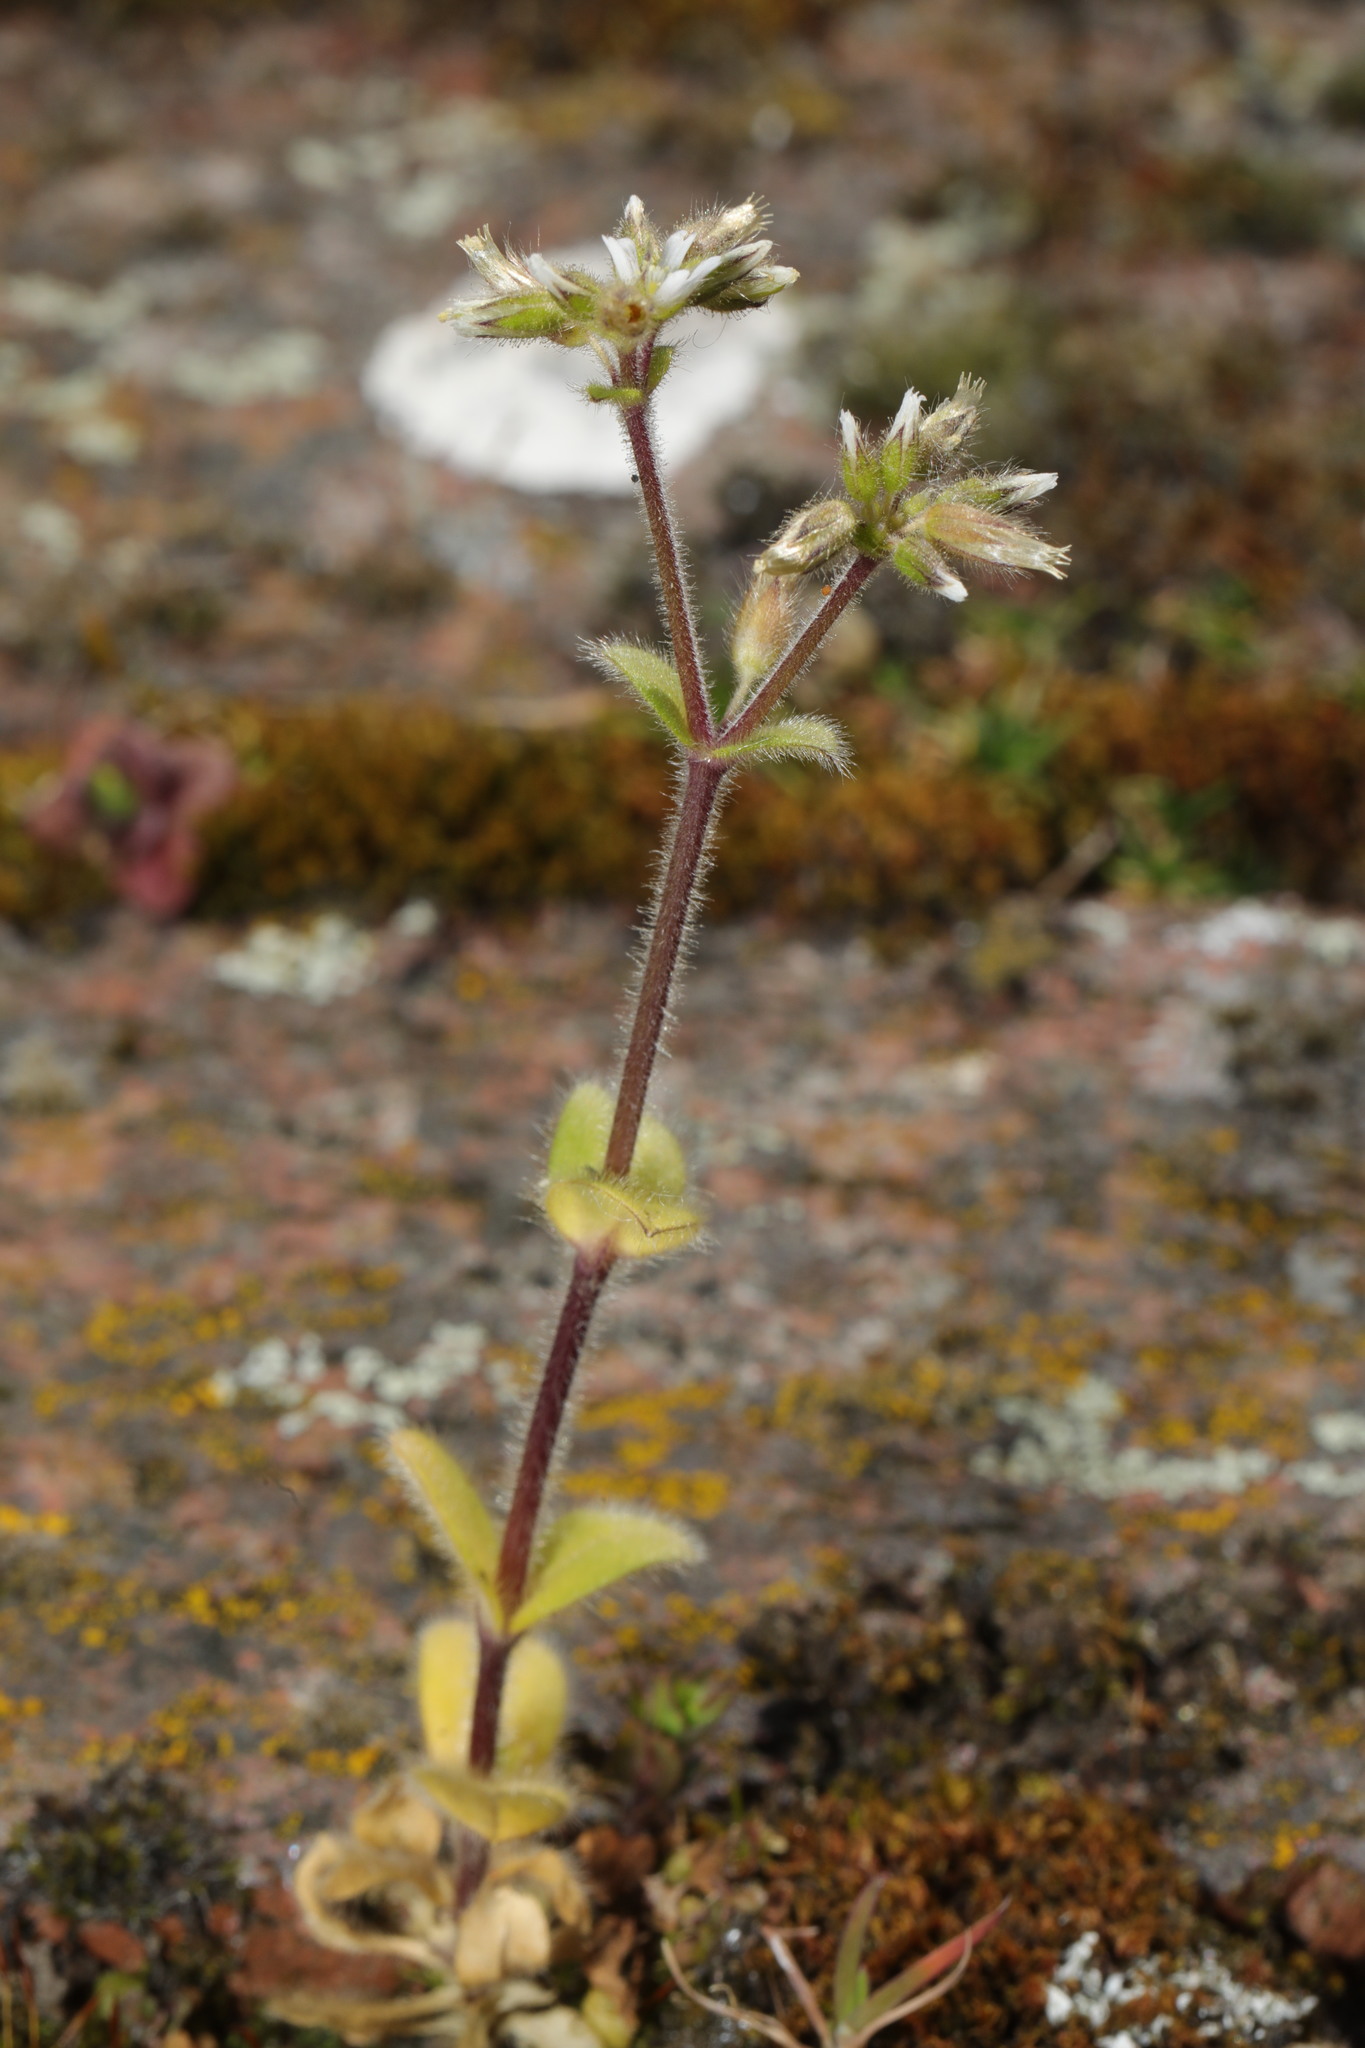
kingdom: Plantae
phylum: Tracheophyta
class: Magnoliopsida
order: Caryophyllales
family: Caryophyllaceae
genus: Cerastium
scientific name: Cerastium glomeratum
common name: Sticky chickweed
